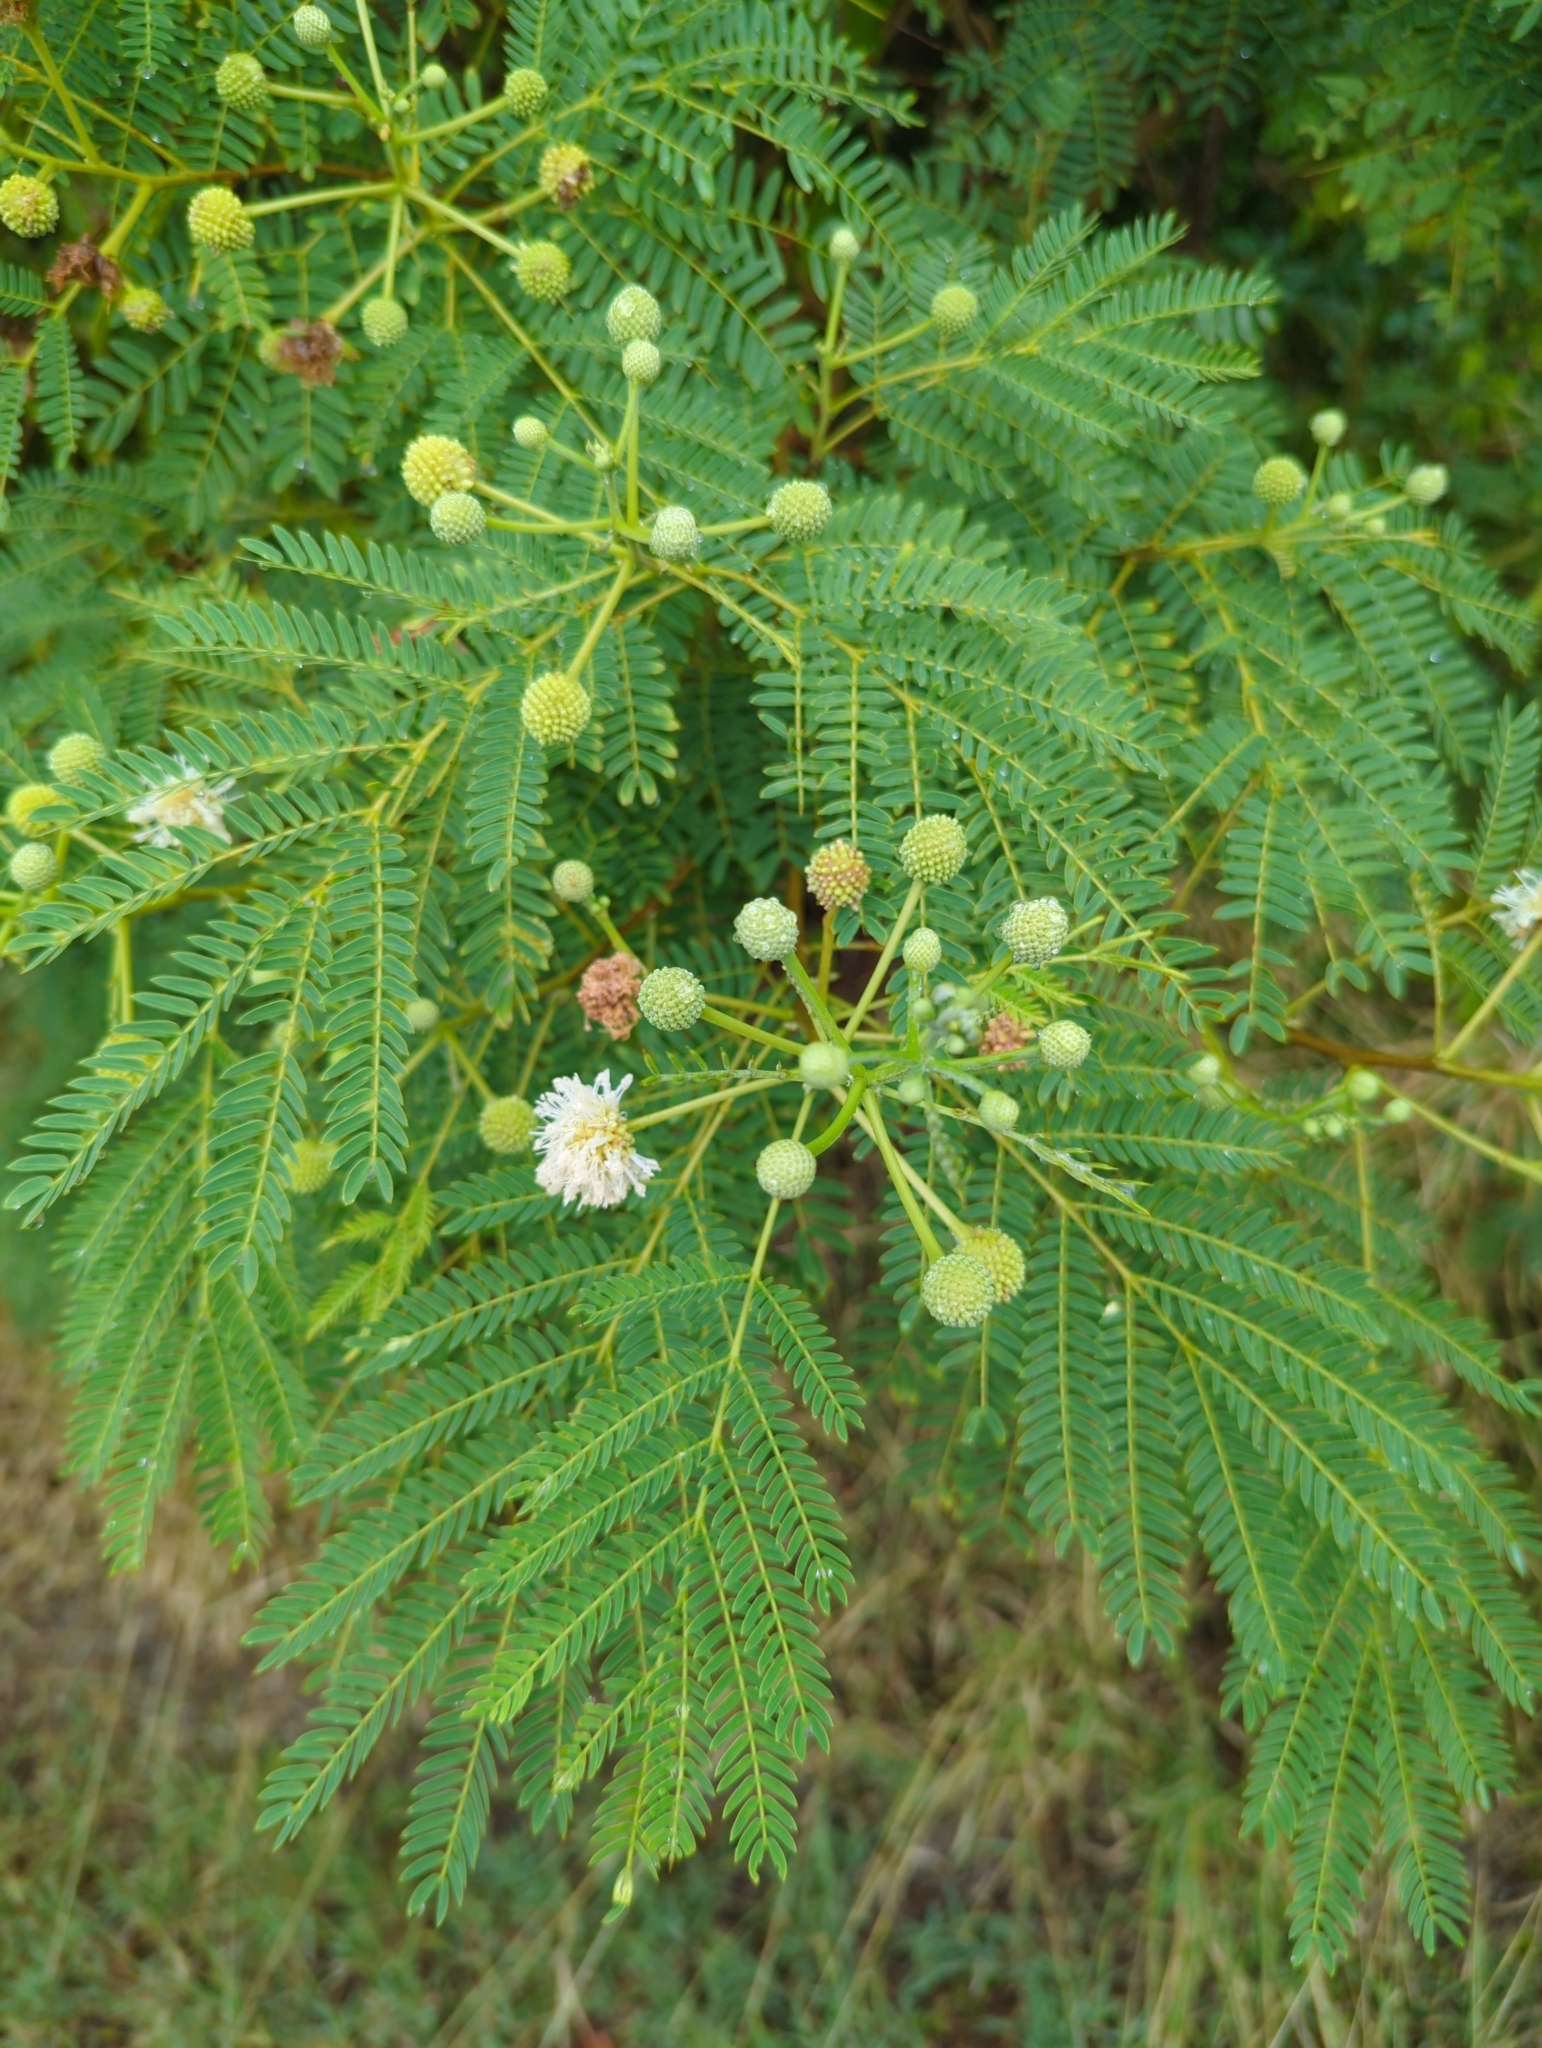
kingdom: Plantae
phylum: Tracheophyta
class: Magnoliopsida
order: Fabales
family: Fabaceae
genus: Leucaena
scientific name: Leucaena leucocephala
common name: White leadtree
